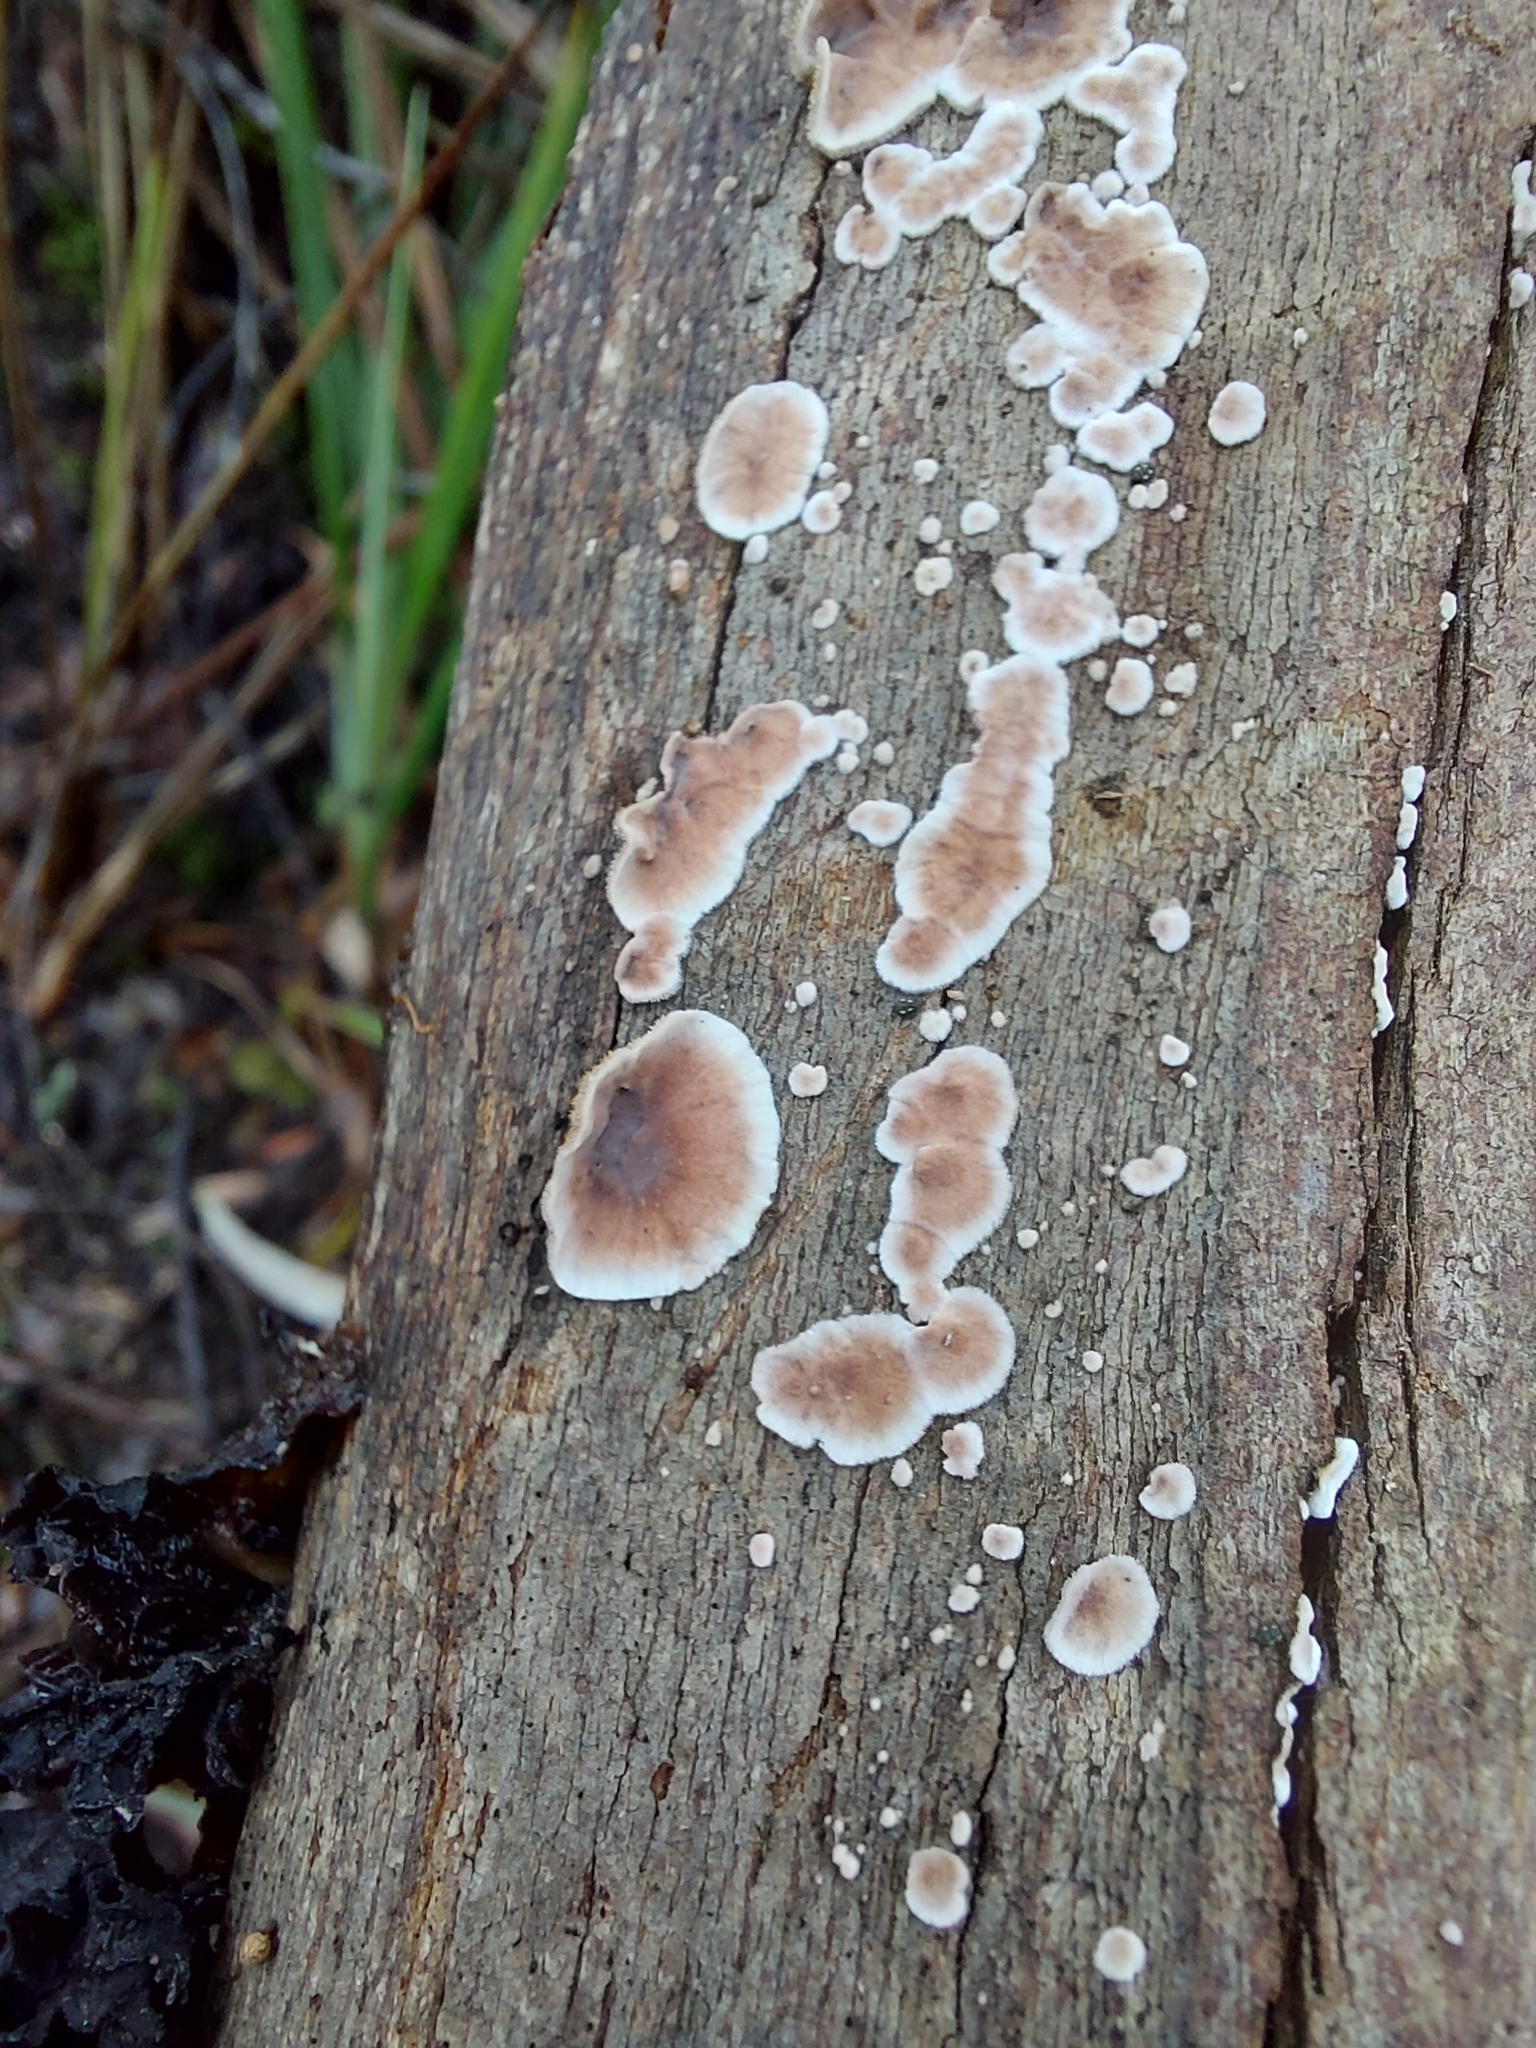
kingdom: Fungi
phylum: Basidiomycota
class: Agaricomycetes
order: Russulales
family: Stereaceae
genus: Xylobolus
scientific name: Xylobolus illudens
